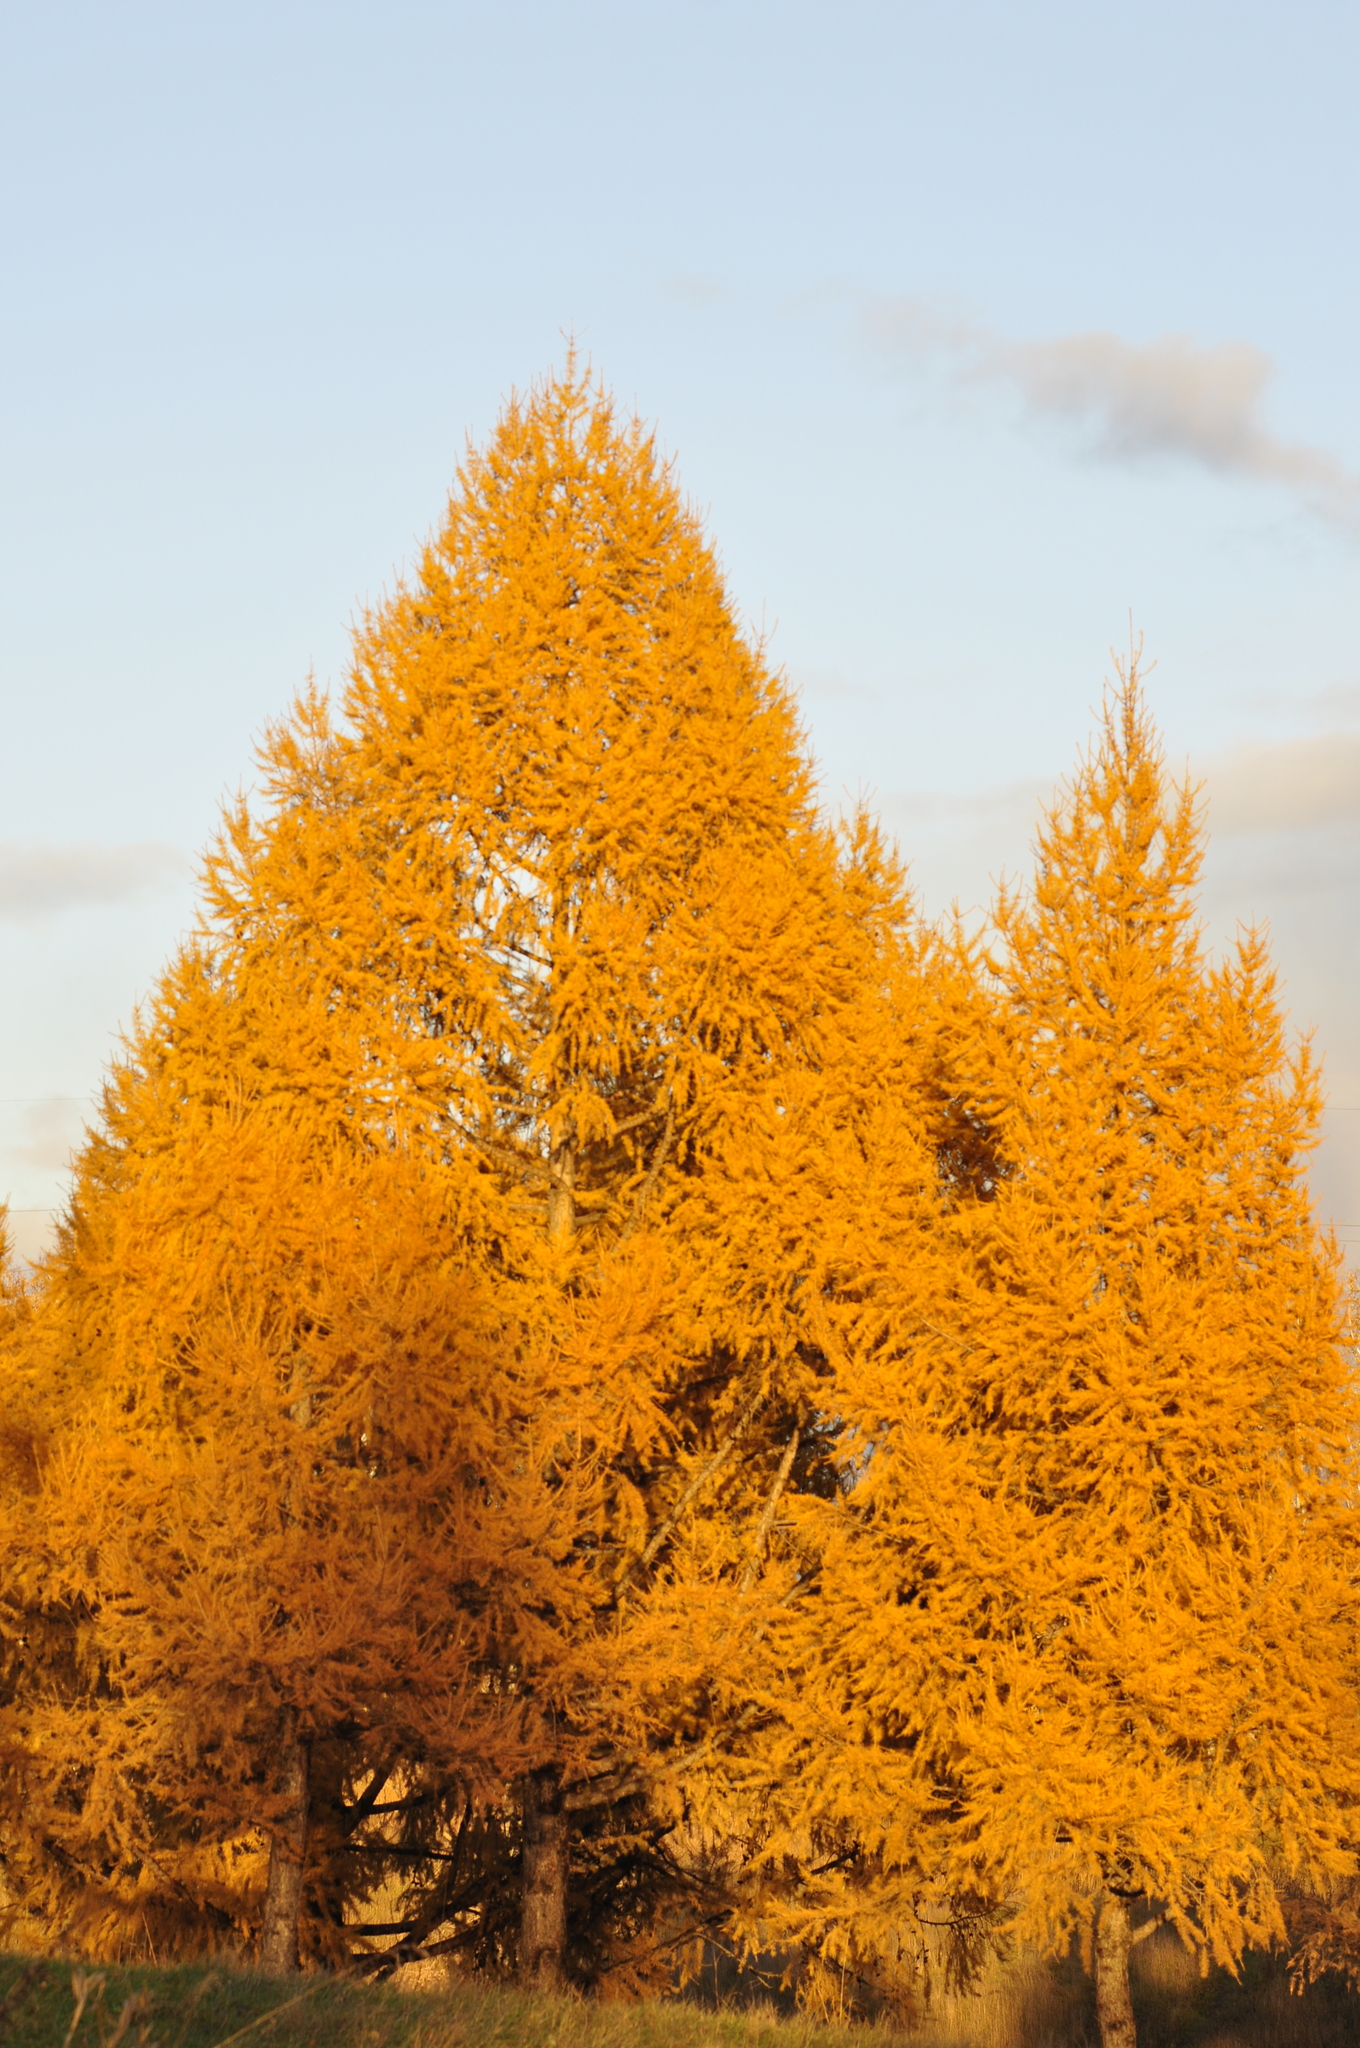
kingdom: Plantae
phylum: Tracheophyta
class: Pinopsida
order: Pinales
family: Pinaceae
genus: Larix
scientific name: Larix sibirica
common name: Siberian larch
